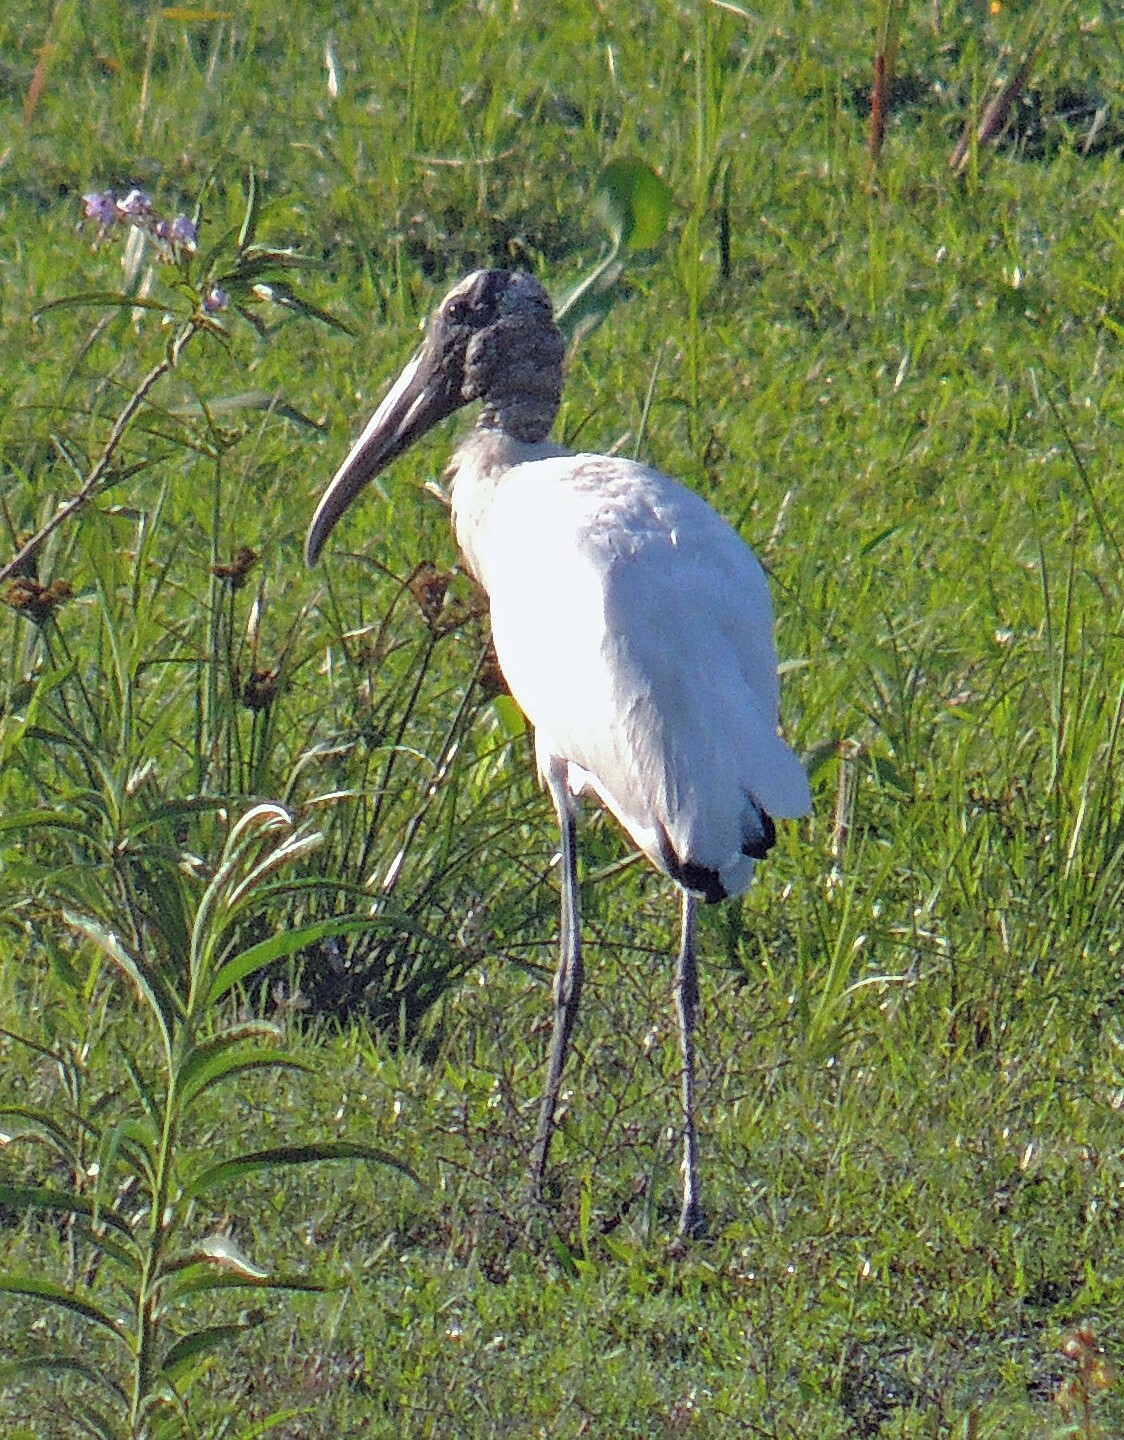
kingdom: Animalia
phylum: Chordata
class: Aves
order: Ciconiiformes
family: Ciconiidae
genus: Mycteria
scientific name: Mycteria americana
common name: Wood stork
